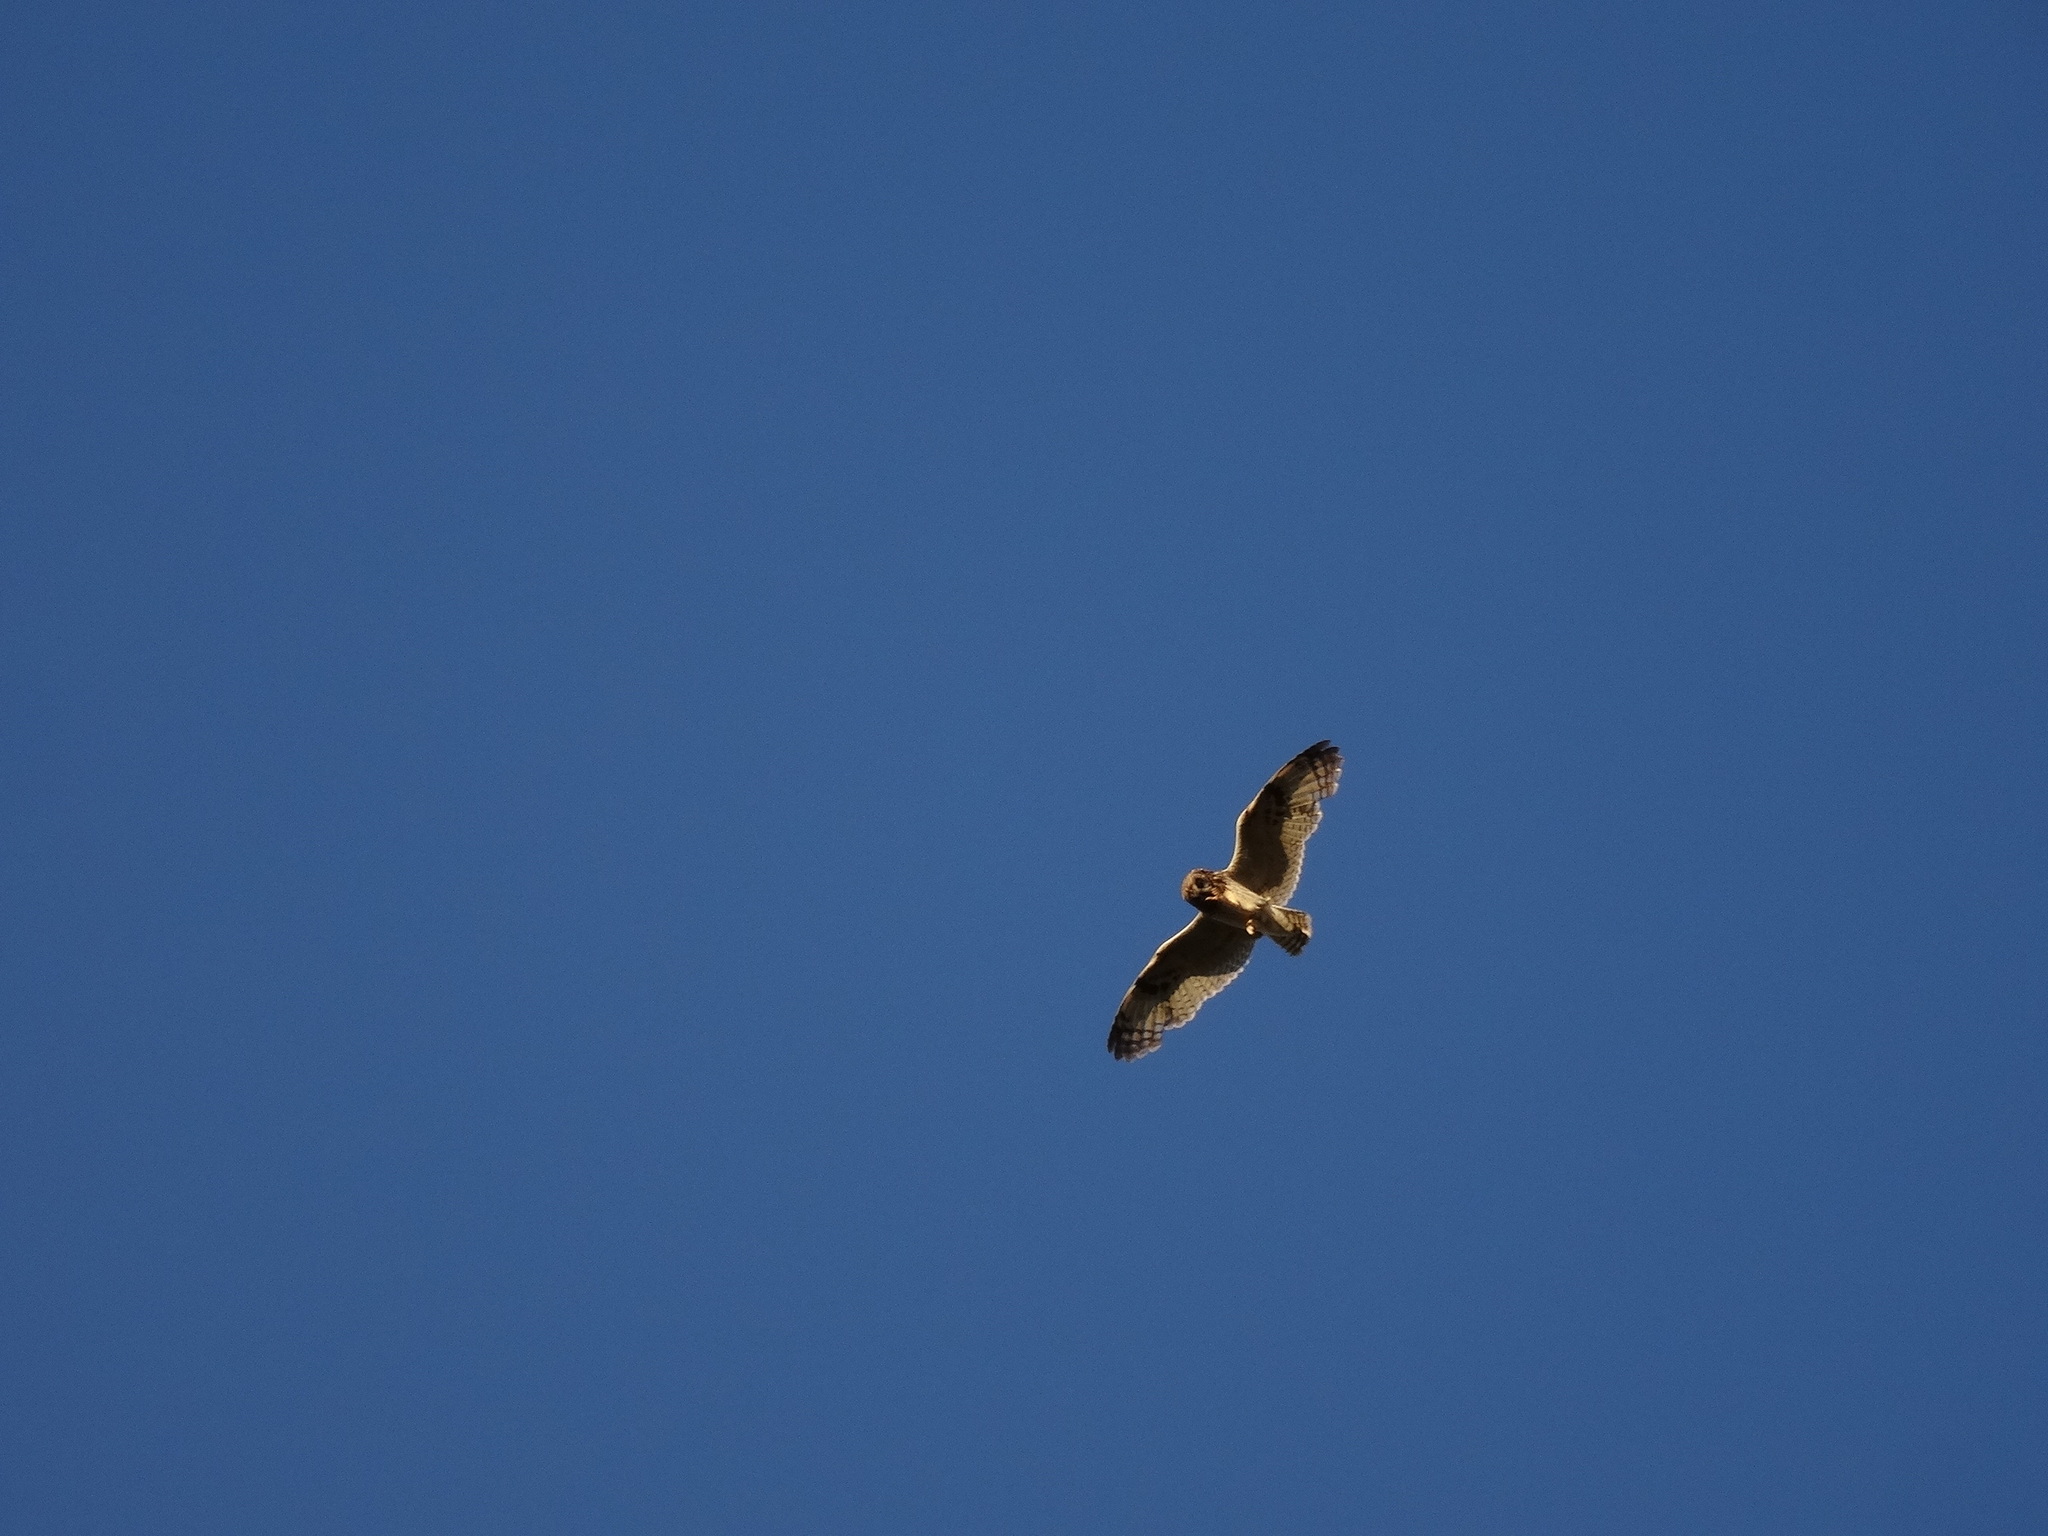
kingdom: Animalia
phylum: Chordata
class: Aves
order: Strigiformes
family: Strigidae
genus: Asio
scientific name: Asio flammeus
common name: Short-eared owl
